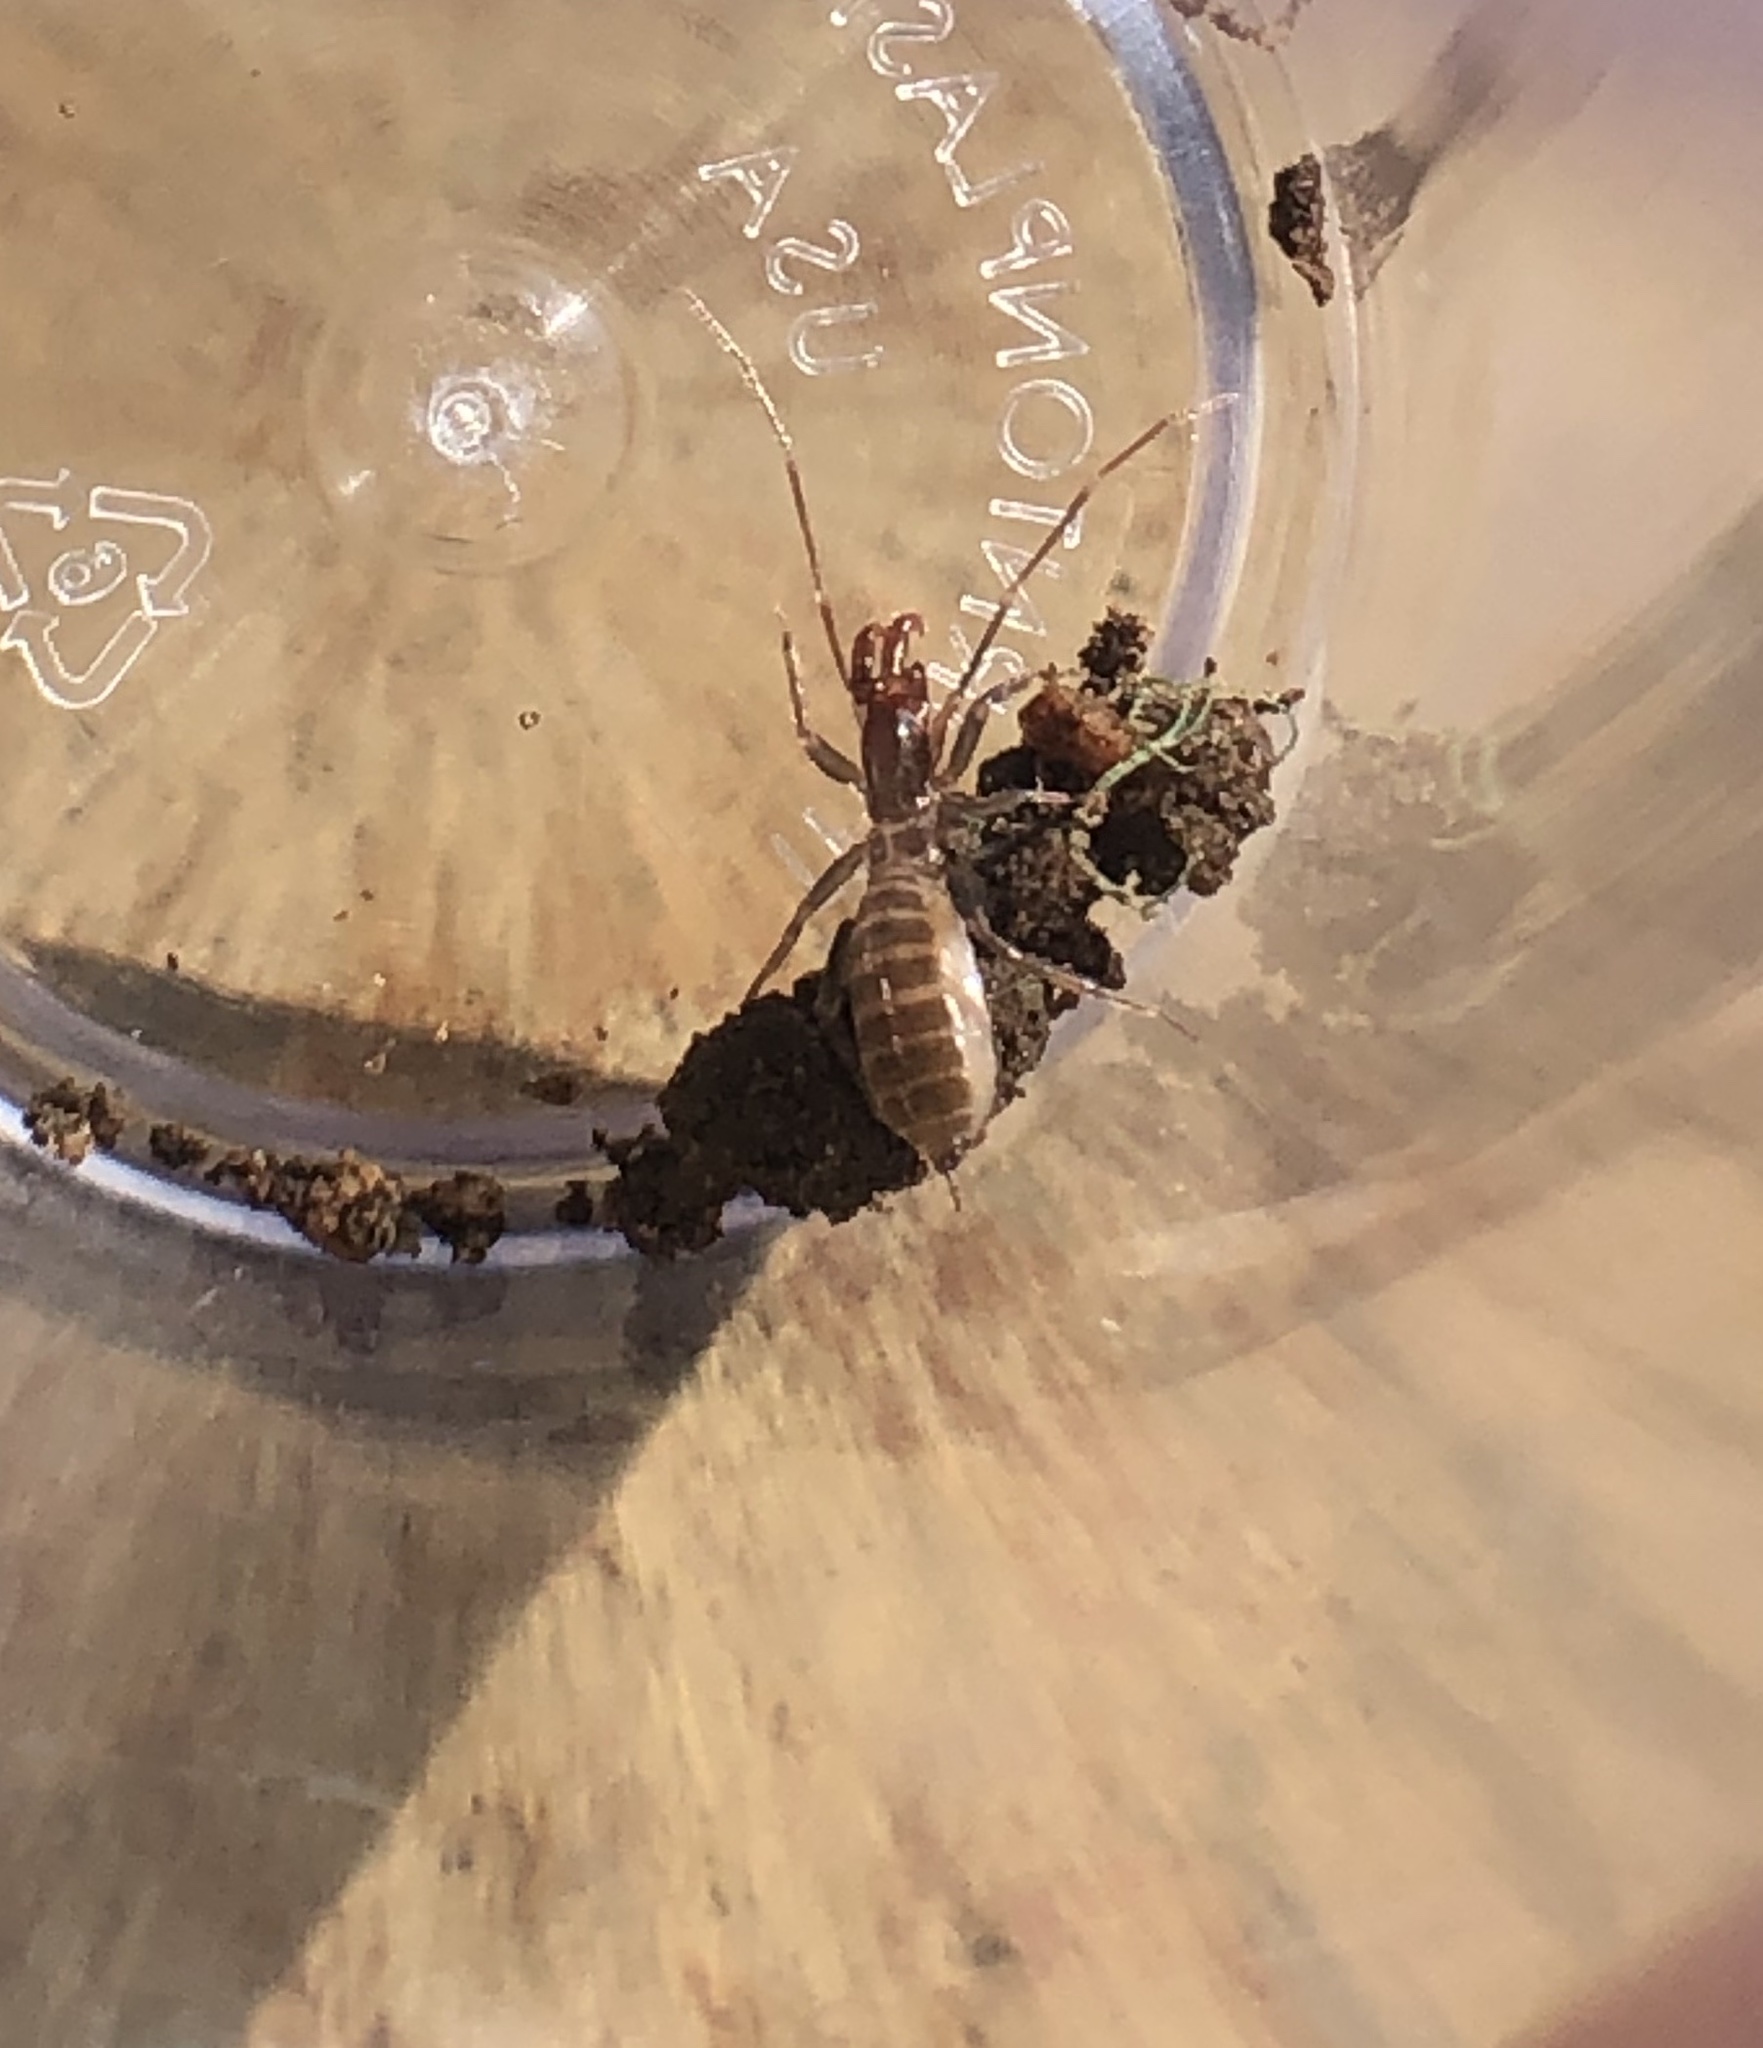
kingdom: Animalia
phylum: Arthropoda
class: Arachnida
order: Schizomida
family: Hubbardiidae
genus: Hubbardia
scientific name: Hubbardia pentapeltis
